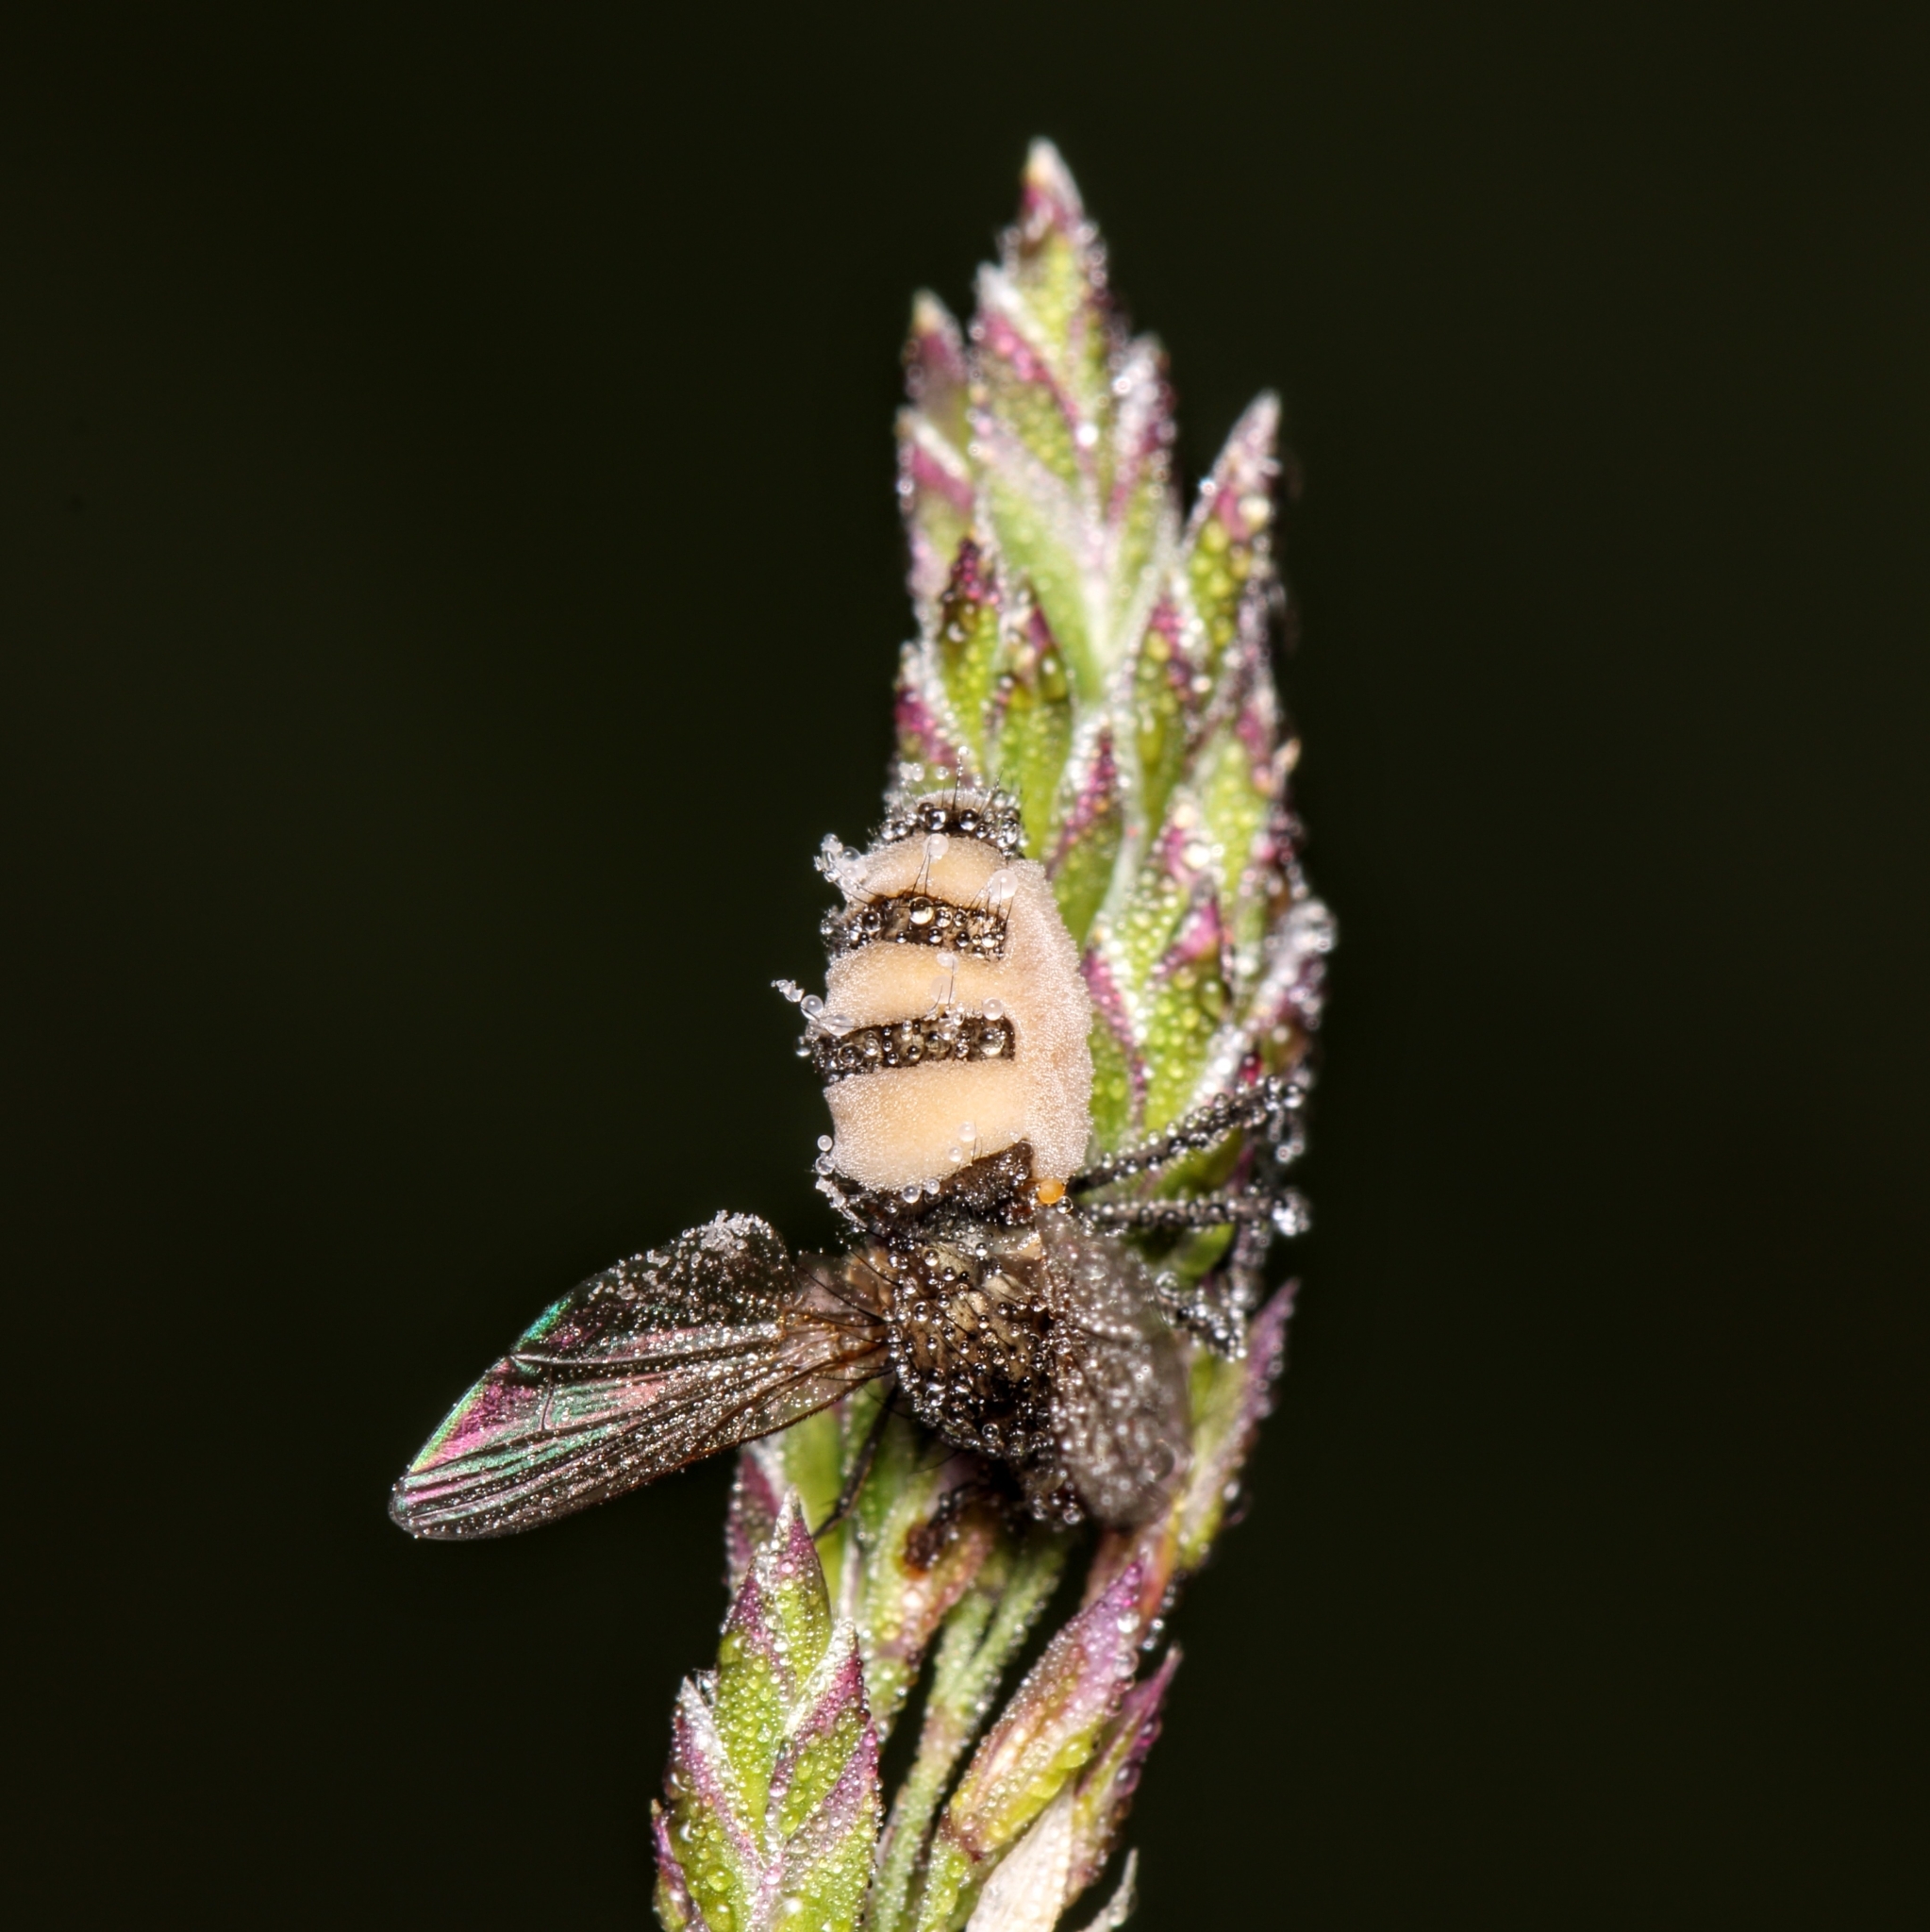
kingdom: Fungi
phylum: Entomophthoromycota
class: Entomophthoromycetes
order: Entomophthorales
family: Entomophthoraceae
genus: Entomophthora
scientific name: Entomophthora muscae
